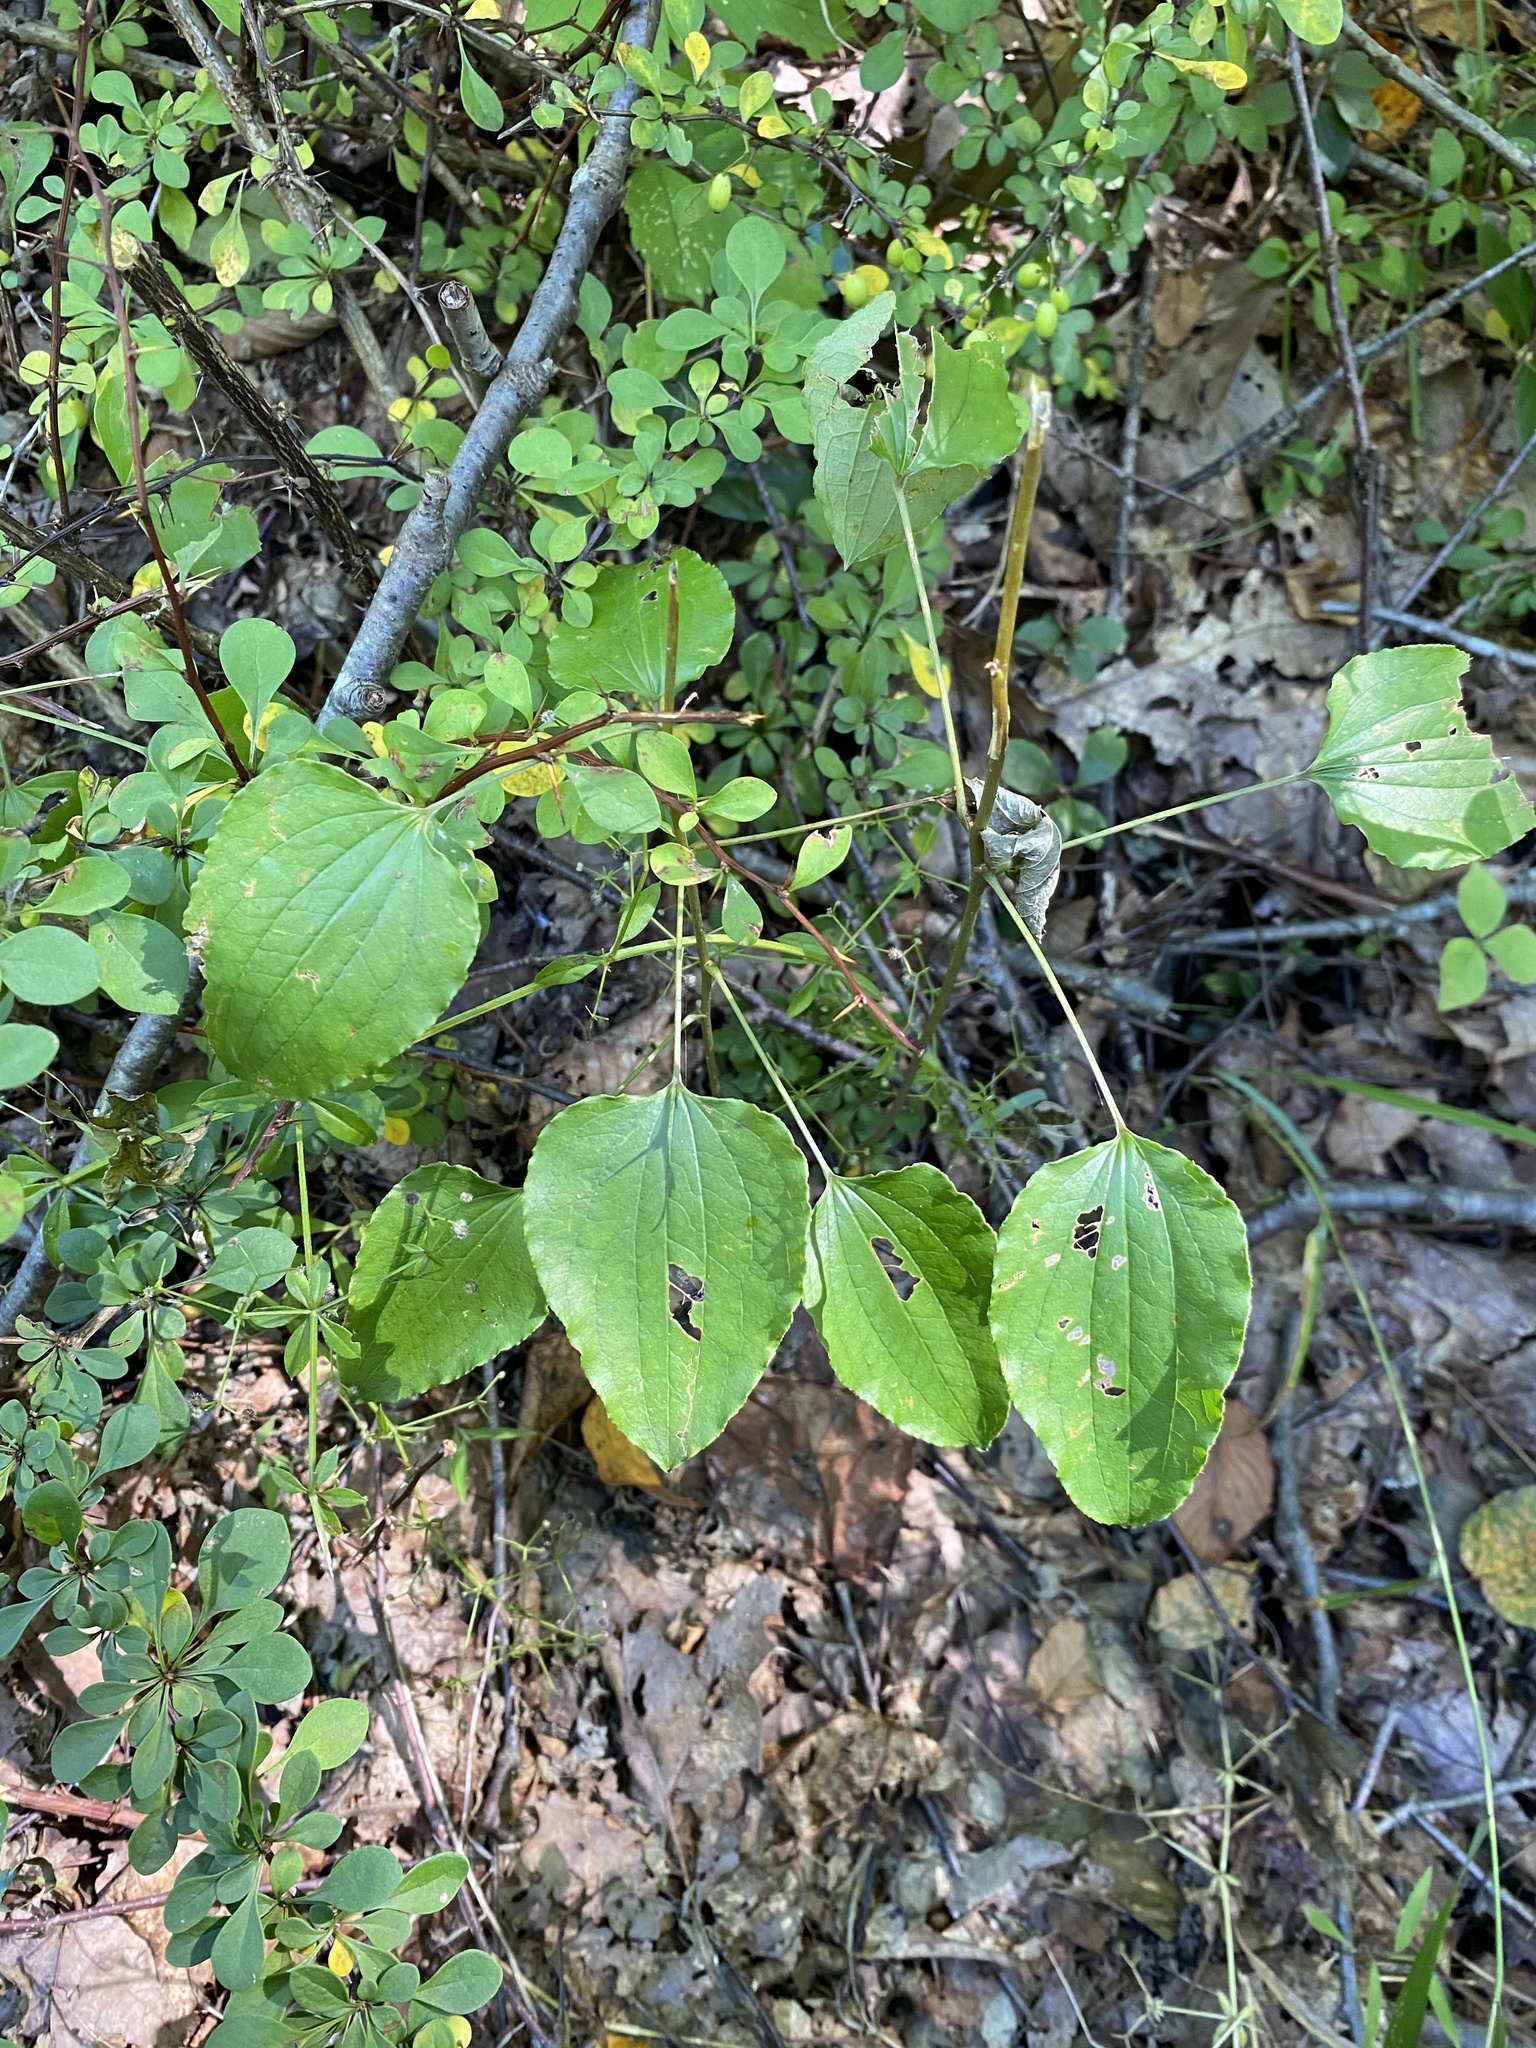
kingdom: Plantae
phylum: Tracheophyta
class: Liliopsida
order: Liliales
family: Smilacaceae
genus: Smilax
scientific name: Smilax herbacea
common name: Jacob's-ladder
